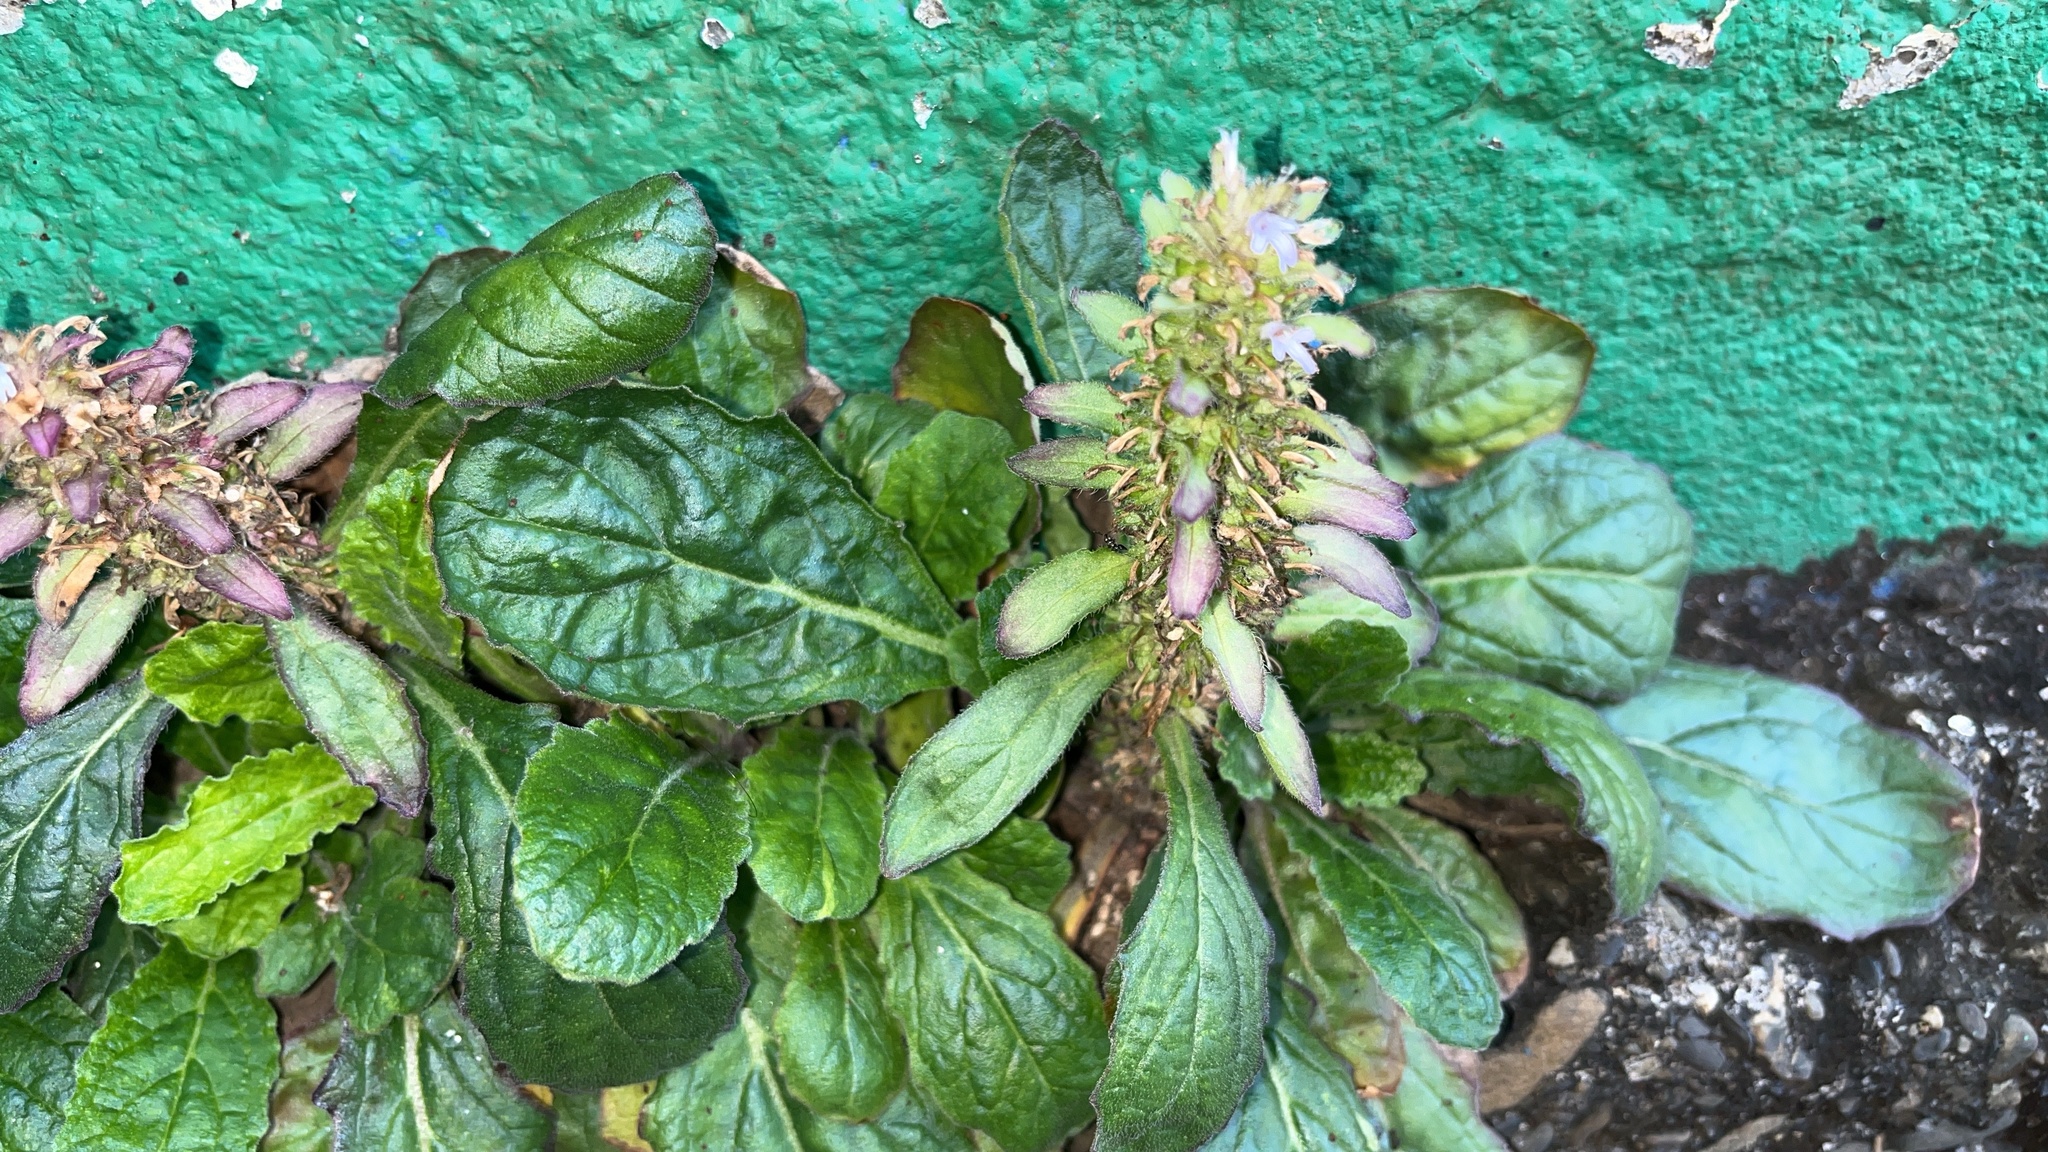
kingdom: Plantae
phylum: Tracheophyta
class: Magnoliopsida
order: Lamiales
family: Lamiaceae
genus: Ajuga
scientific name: Ajuga taiwanensis
